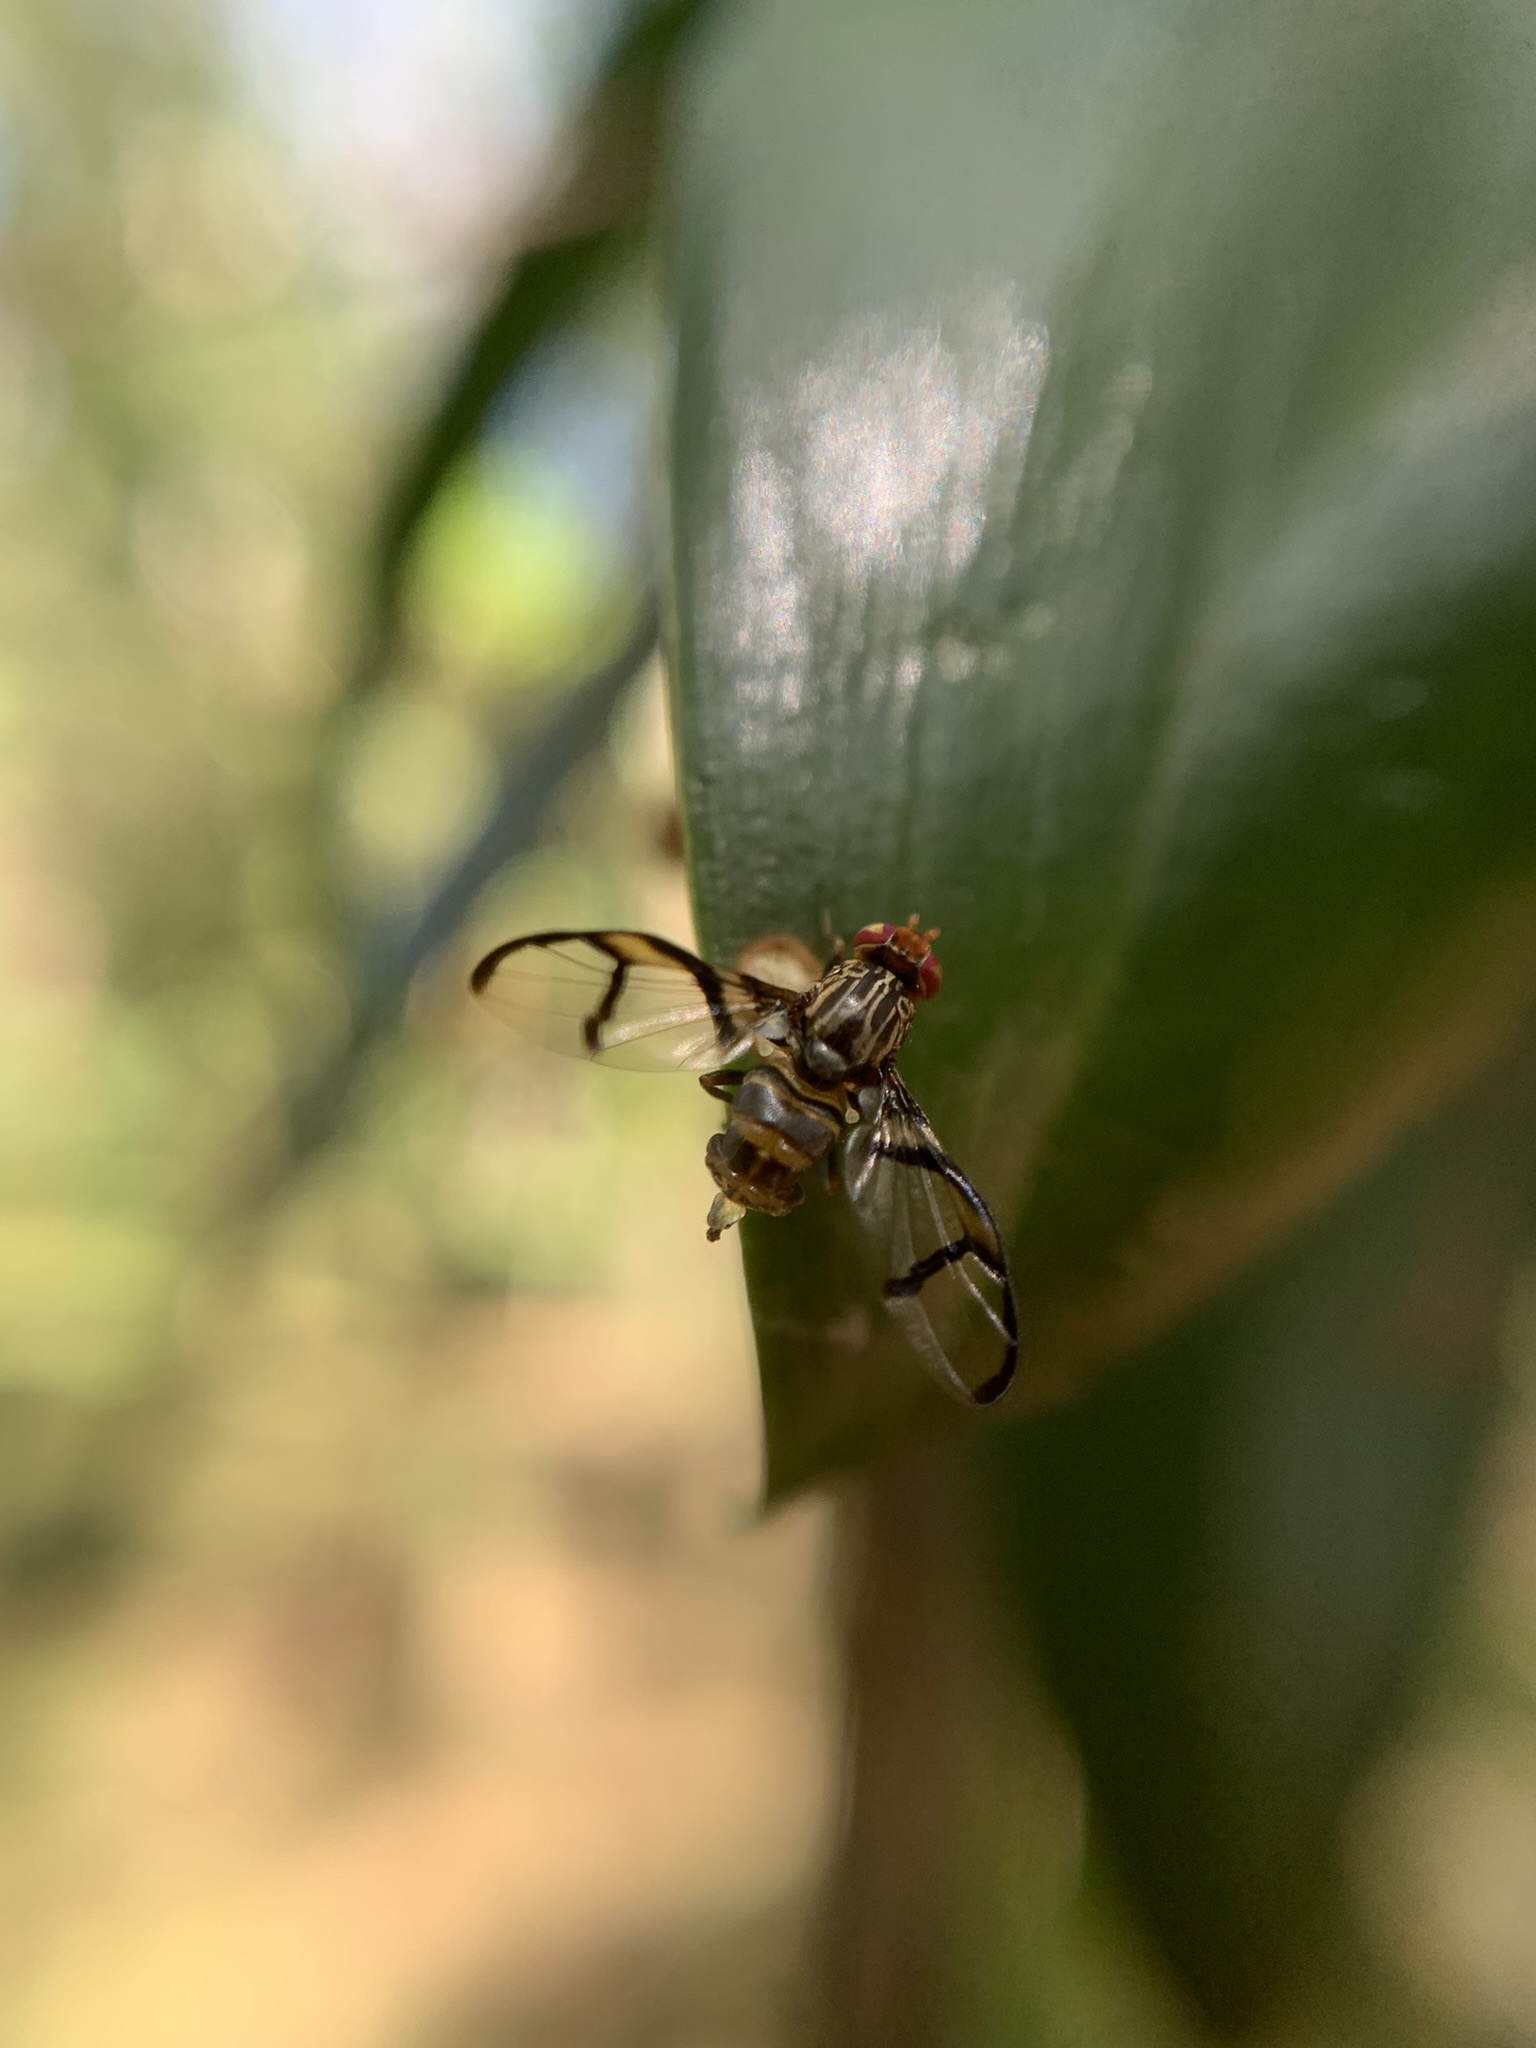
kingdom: Animalia
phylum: Arthropoda
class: Insecta
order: Diptera
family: Ulidiidae
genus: Neomyennis
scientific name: Neomyennis appendiculata
